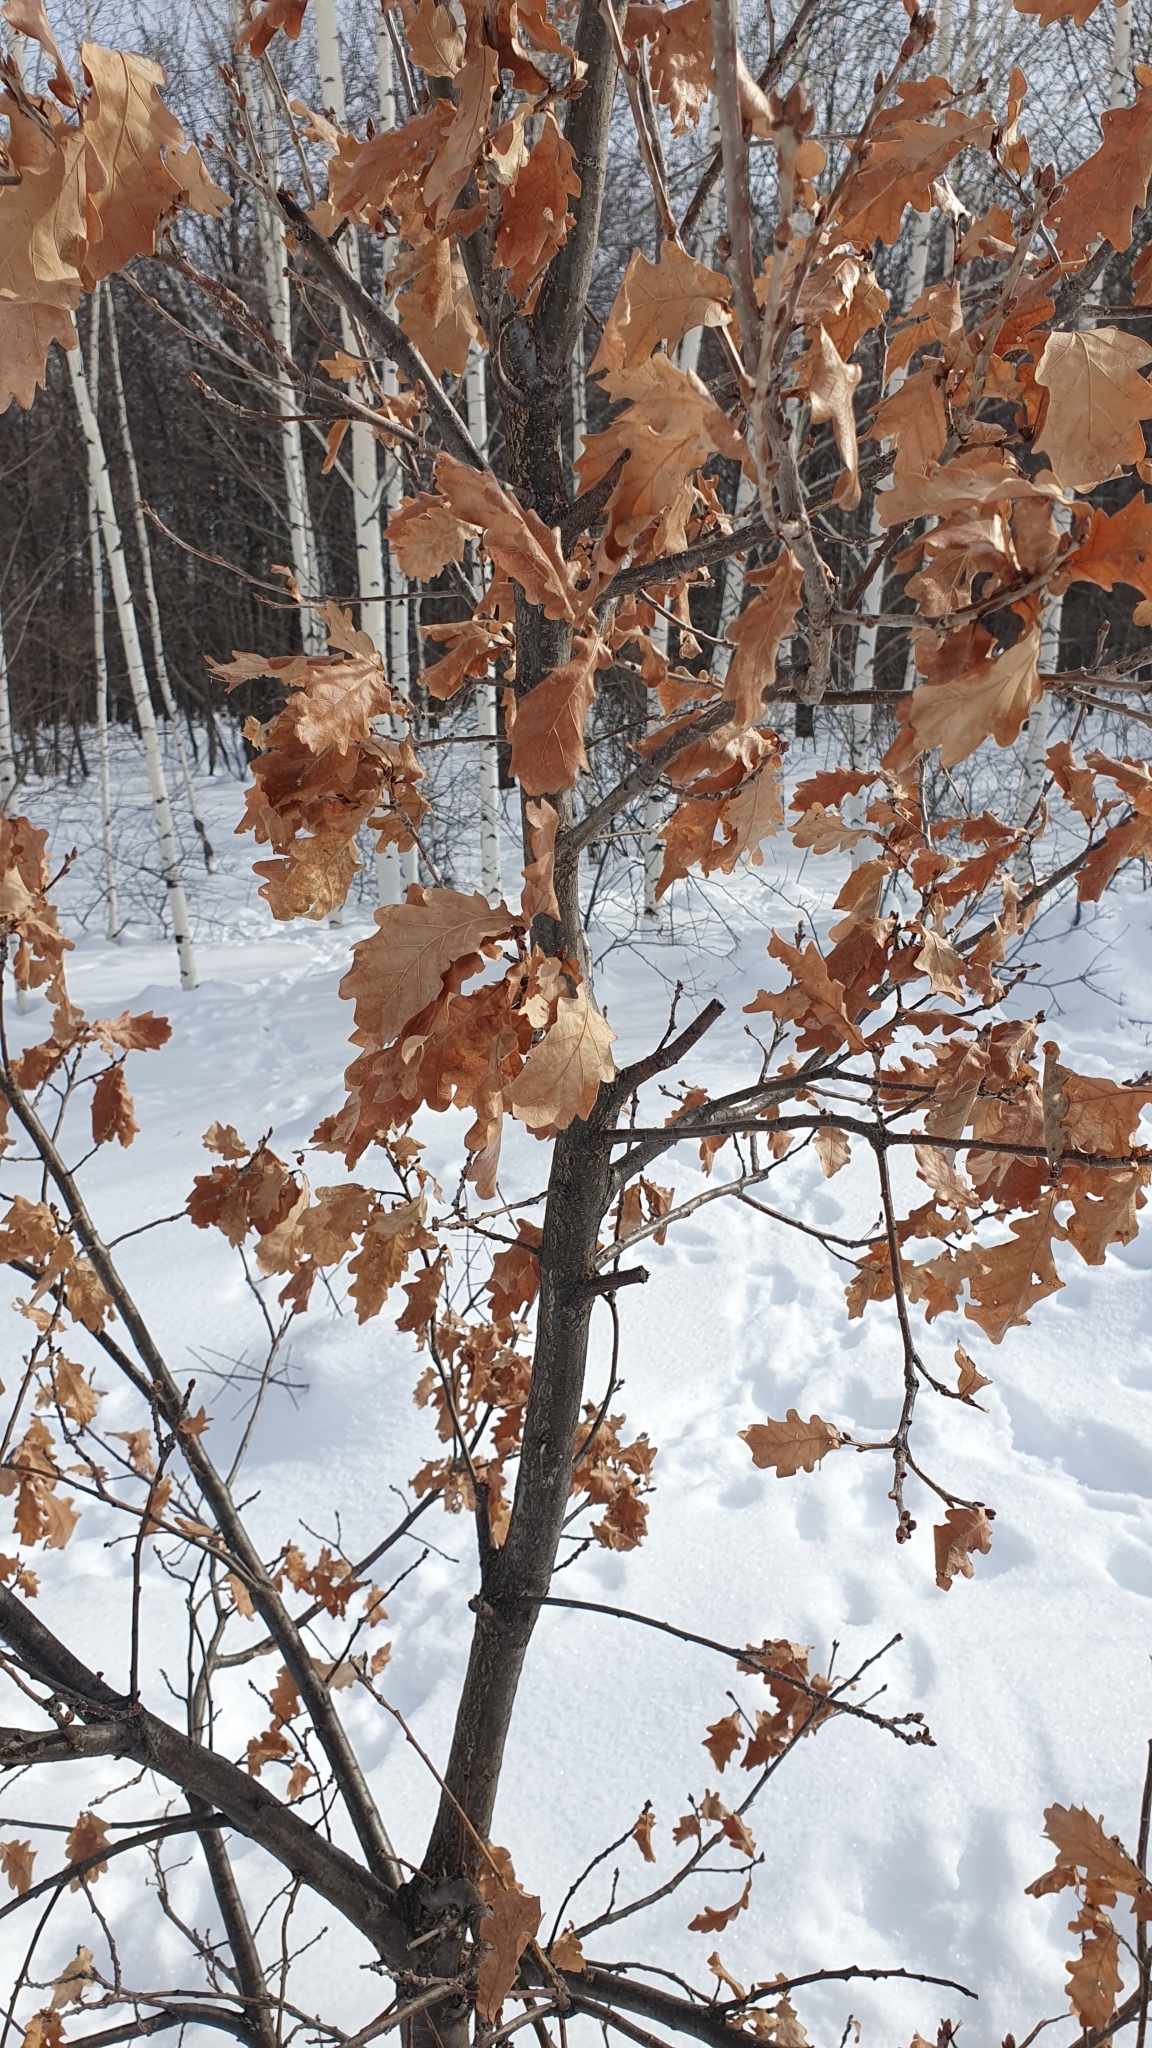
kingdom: Plantae
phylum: Tracheophyta
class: Magnoliopsida
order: Fagales
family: Fagaceae
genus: Quercus
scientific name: Quercus robur
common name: Pedunculate oak
